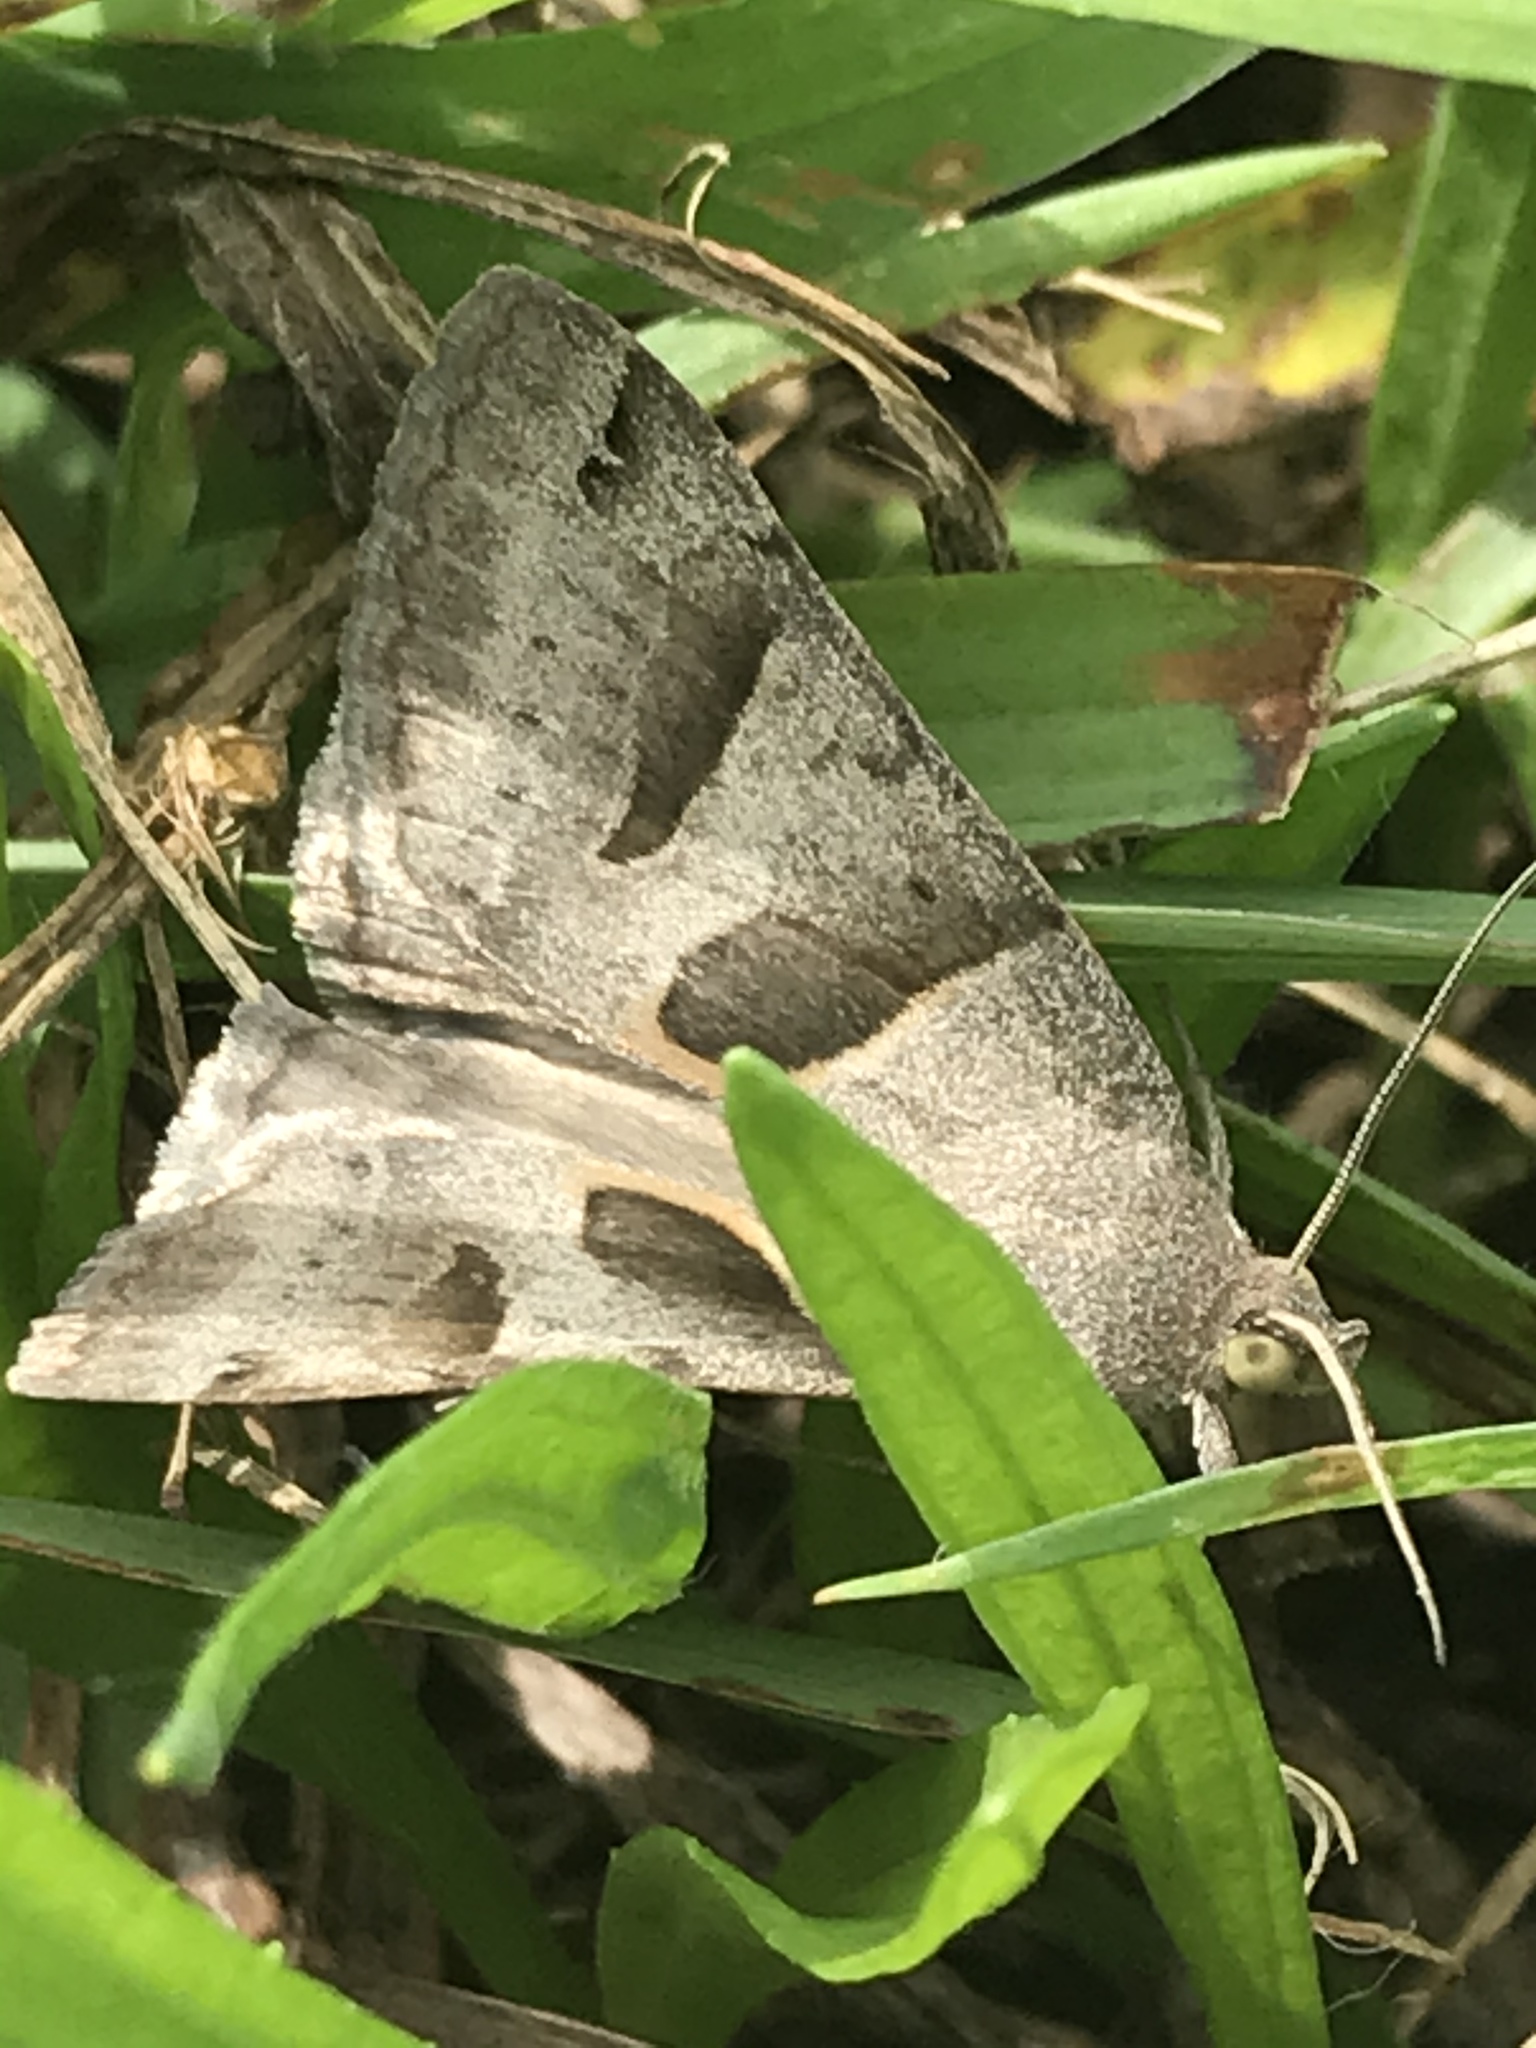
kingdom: Animalia
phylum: Arthropoda
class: Insecta
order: Lepidoptera
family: Erebidae
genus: Caenurgina
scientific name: Caenurgina erechtea
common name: Forage looper moth
